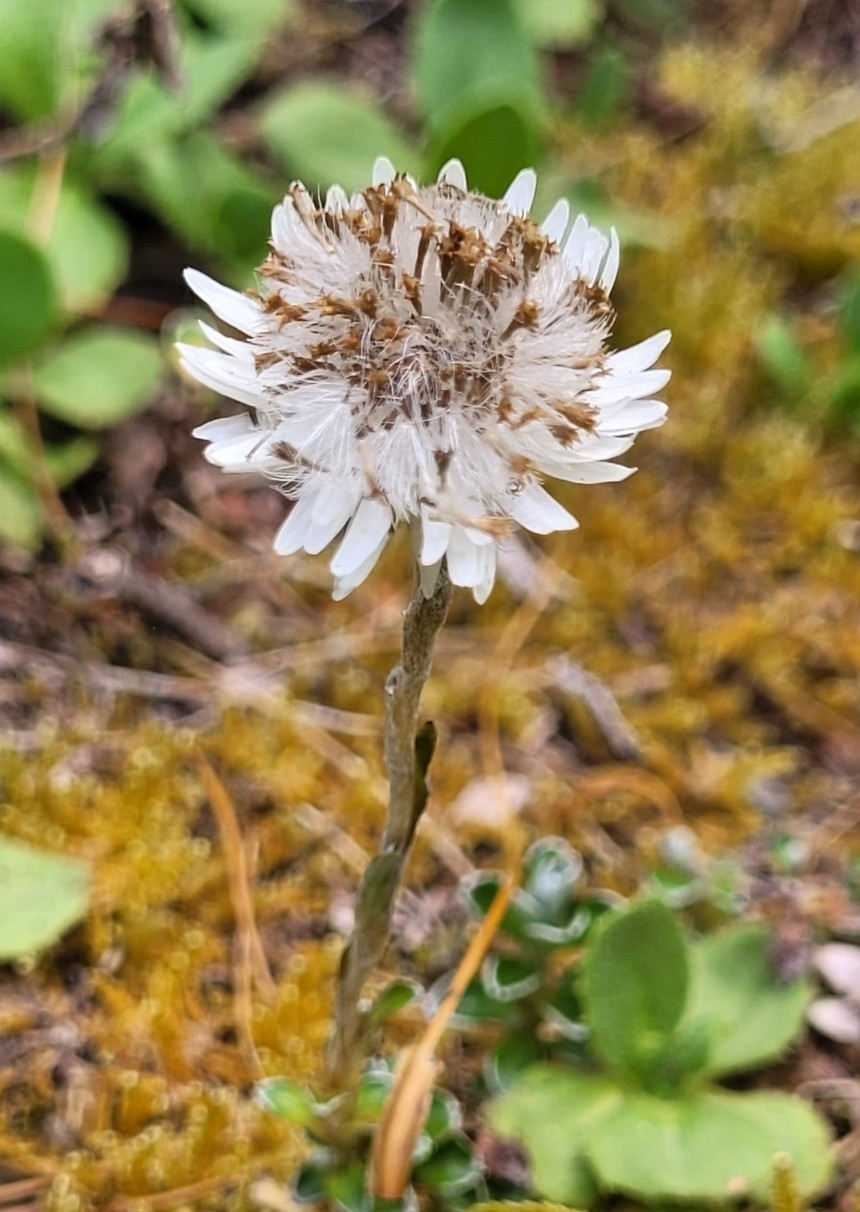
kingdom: Plantae
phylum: Tracheophyta
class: Magnoliopsida
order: Asterales
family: Asteraceae
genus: Anaphalioides
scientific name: Anaphalioides alpina
